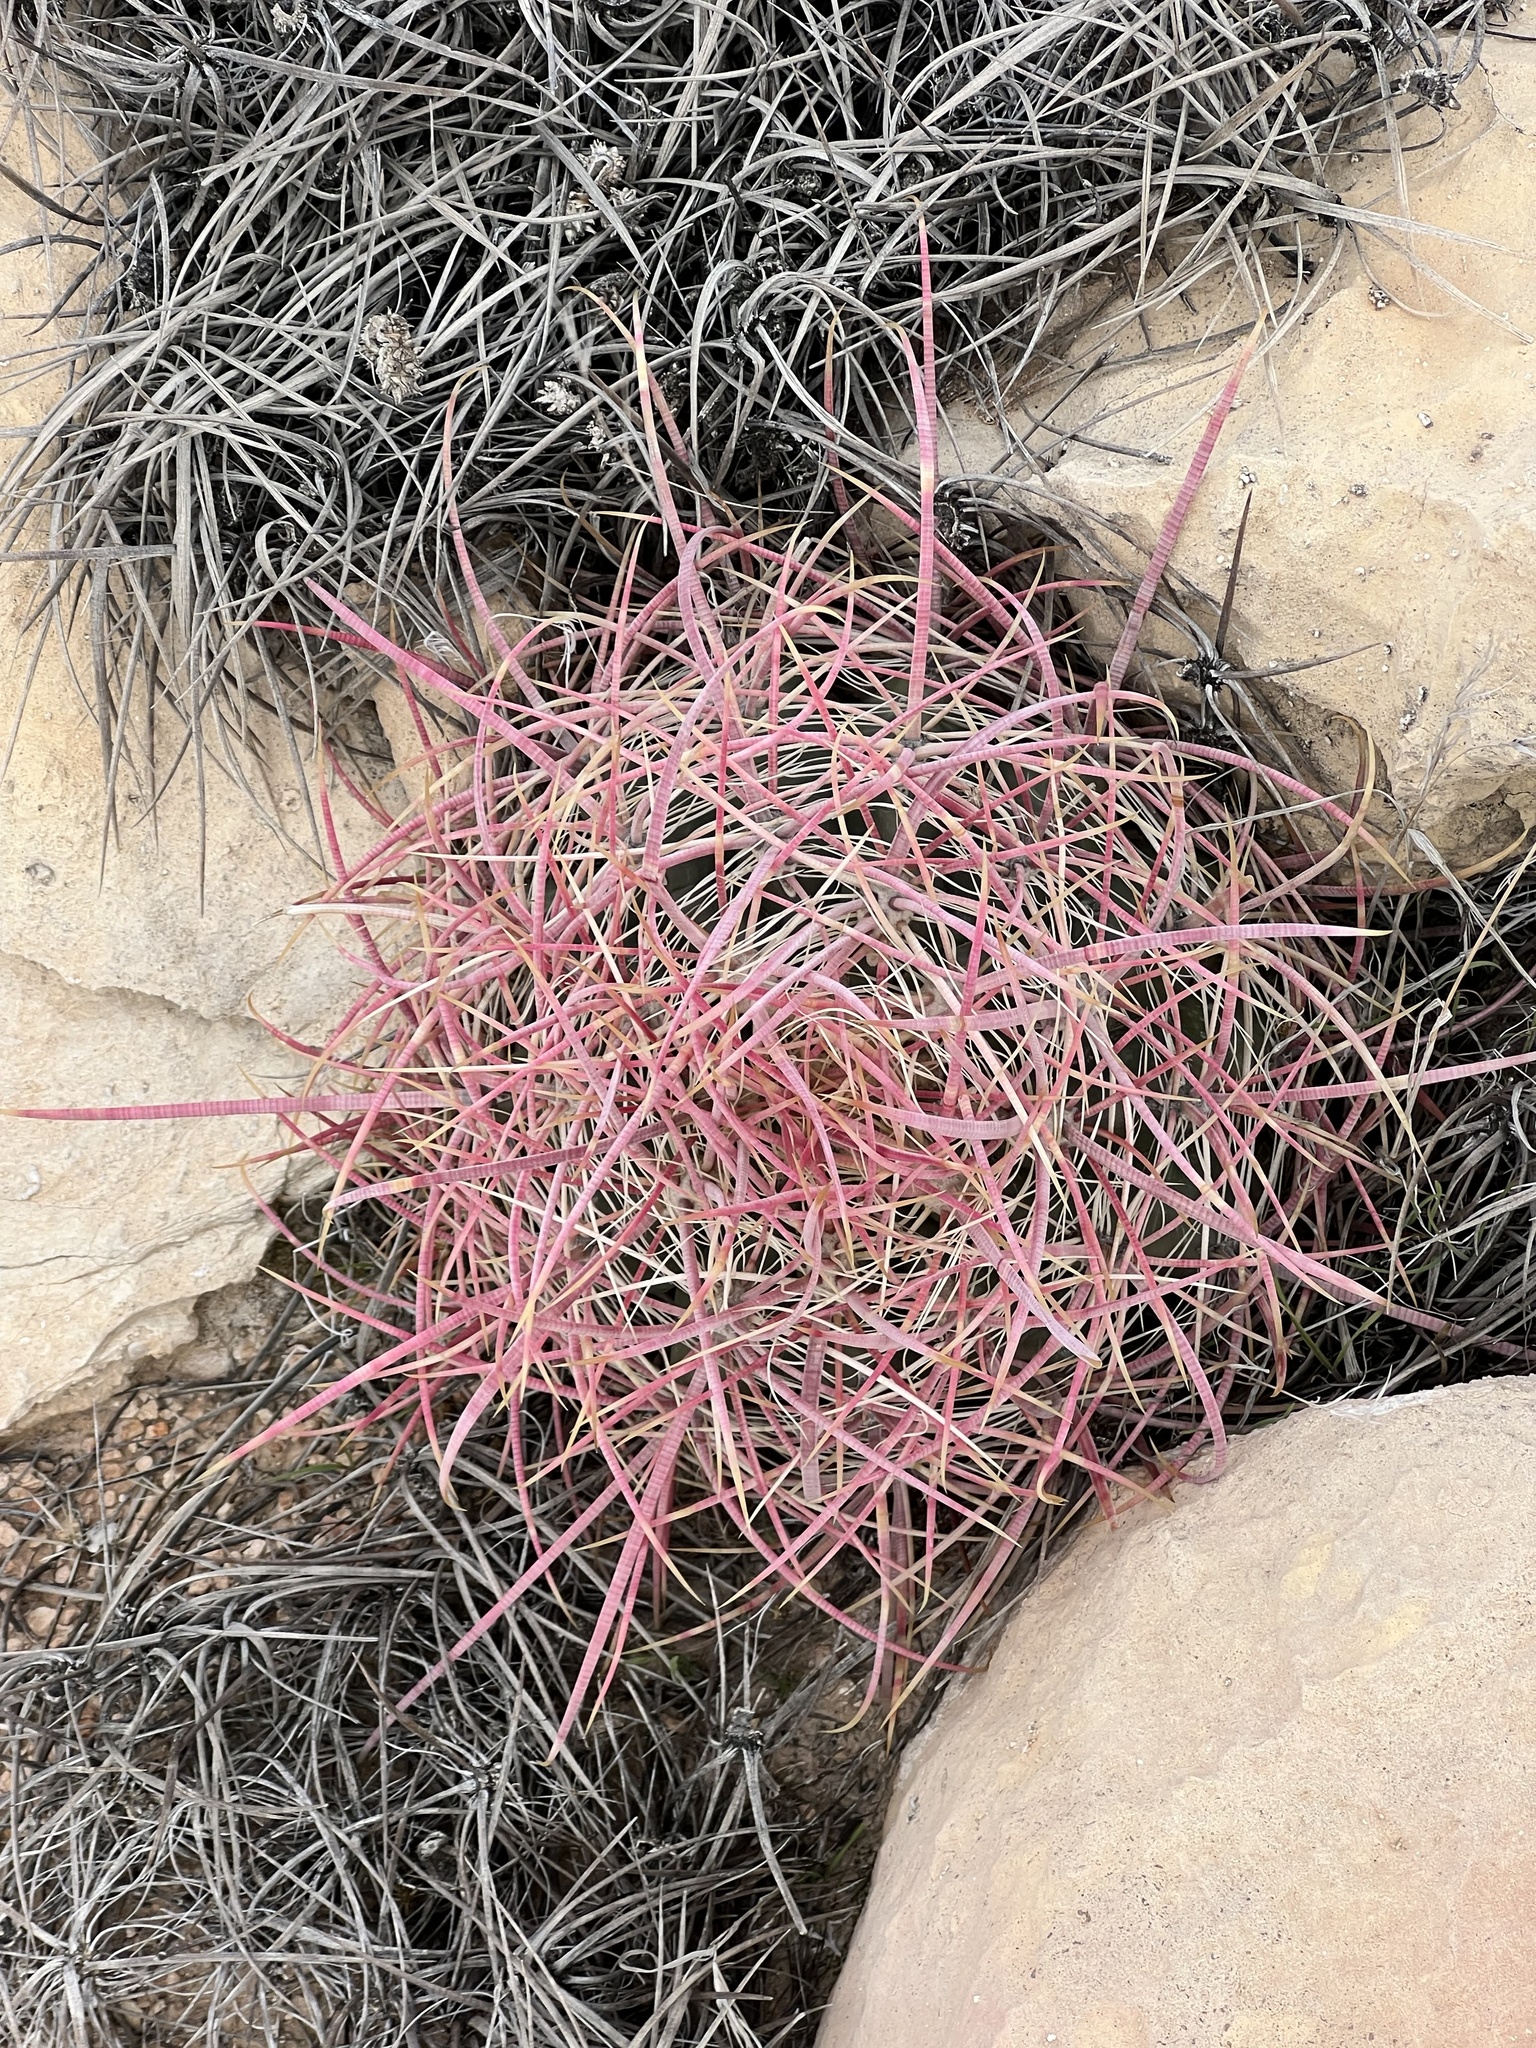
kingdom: Plantae
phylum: Tracheophyta
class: Magnoliopsida
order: Caryophyllales
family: Cactaceae
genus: Ferocactus
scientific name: Ferocactus cylindraceus
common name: California barrel cactus
